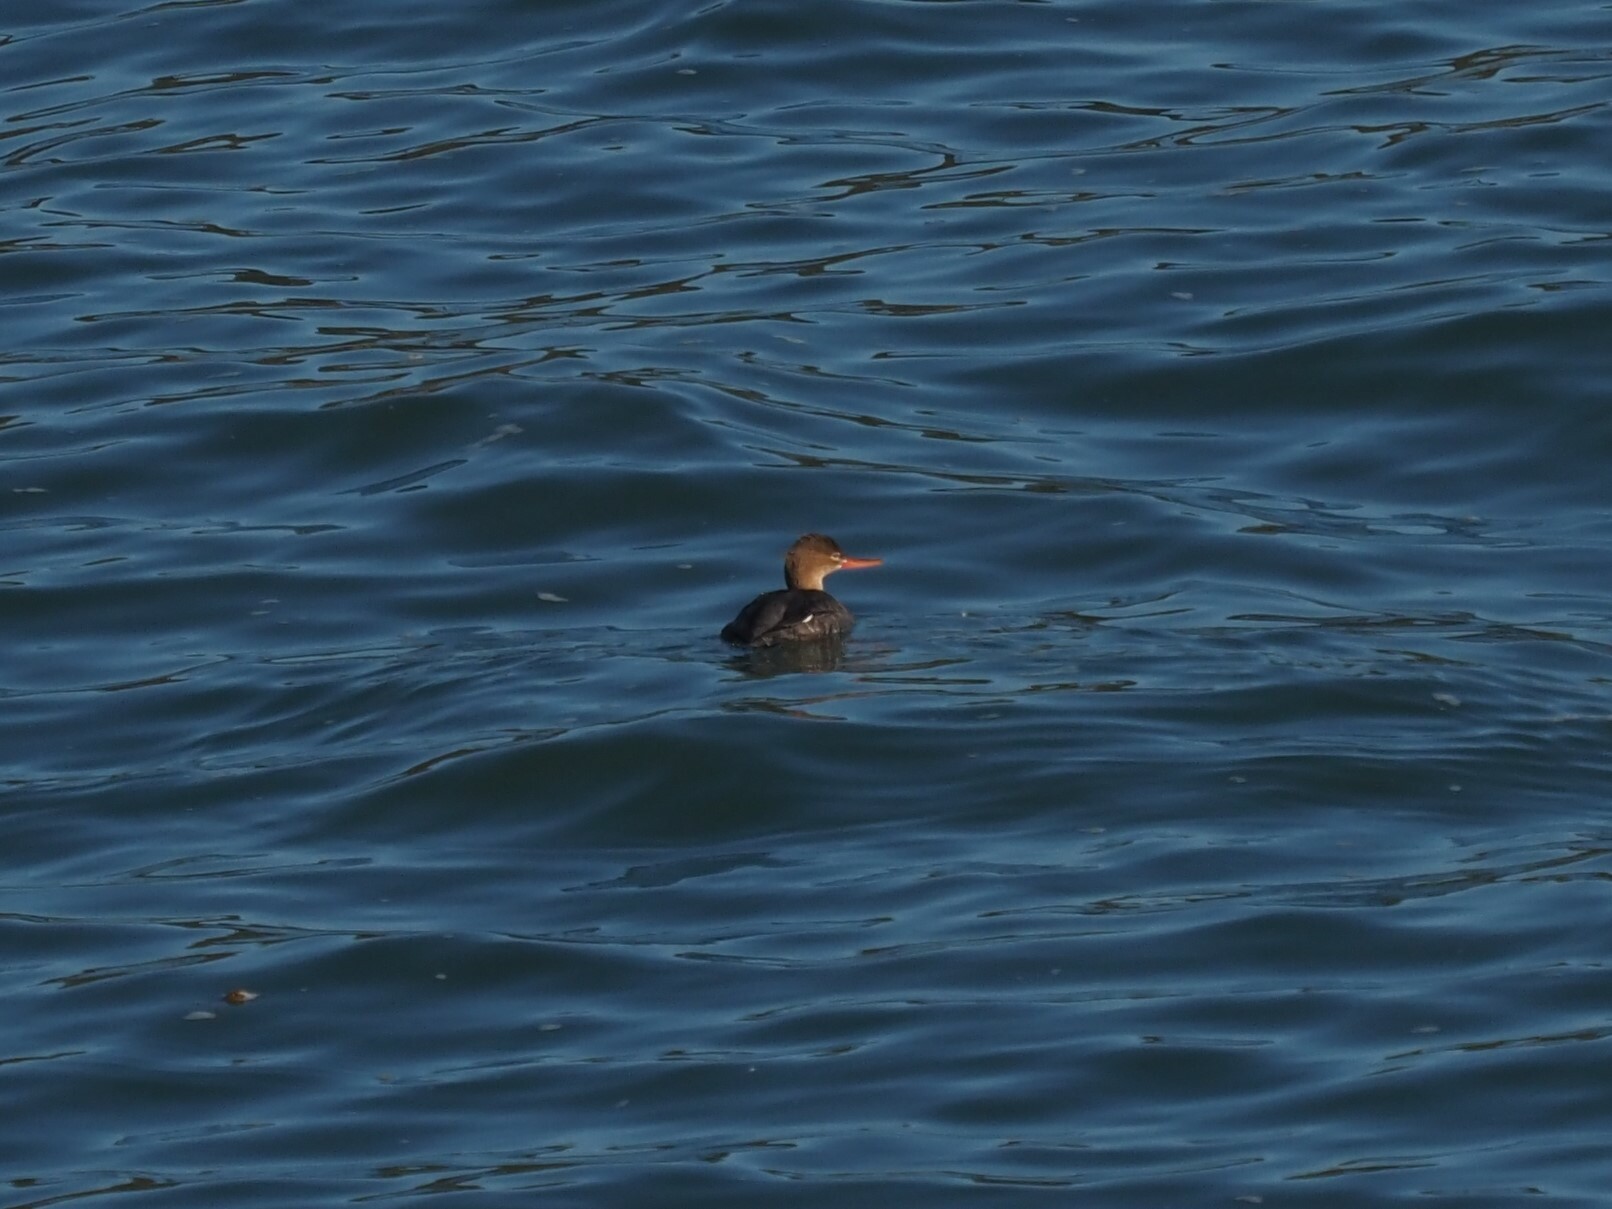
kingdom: Animalia
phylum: Chordata
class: Aves
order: Anseriformes
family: Anatidae
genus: Mergus
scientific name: Mergus serrator
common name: Red-breasted merganser
